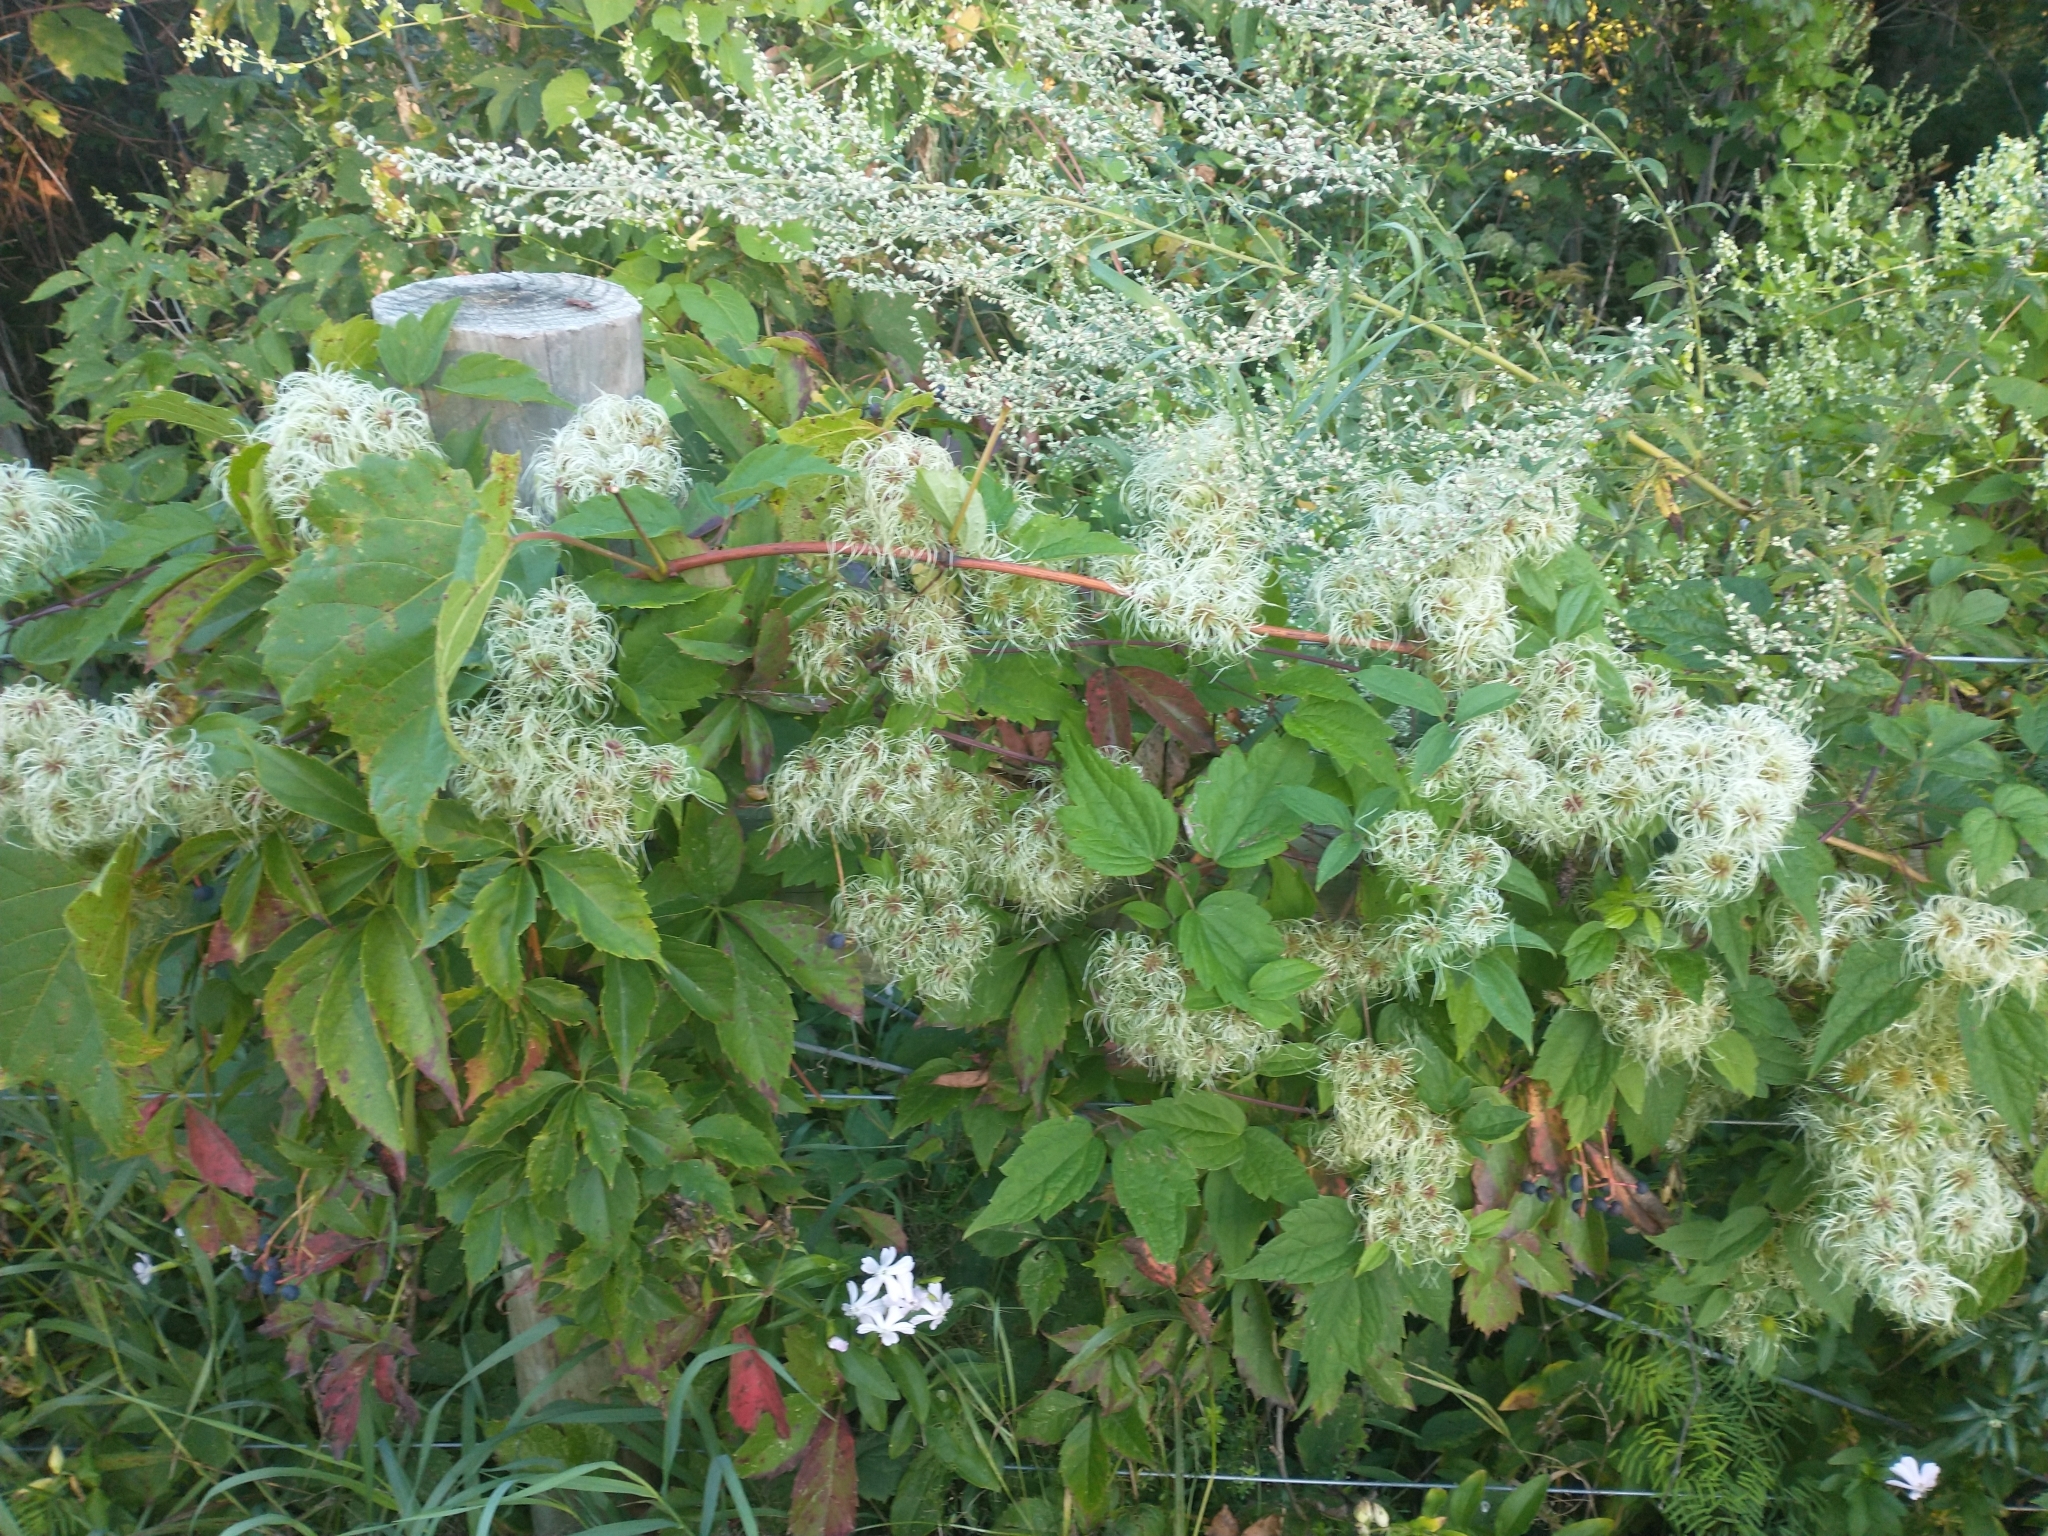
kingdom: Plantae
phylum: Tracheophyta
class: Magnoliopsida
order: Ranunculales
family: Ranunculaceae
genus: Clematis
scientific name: Clematis virginiana
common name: Virgin's-bower
